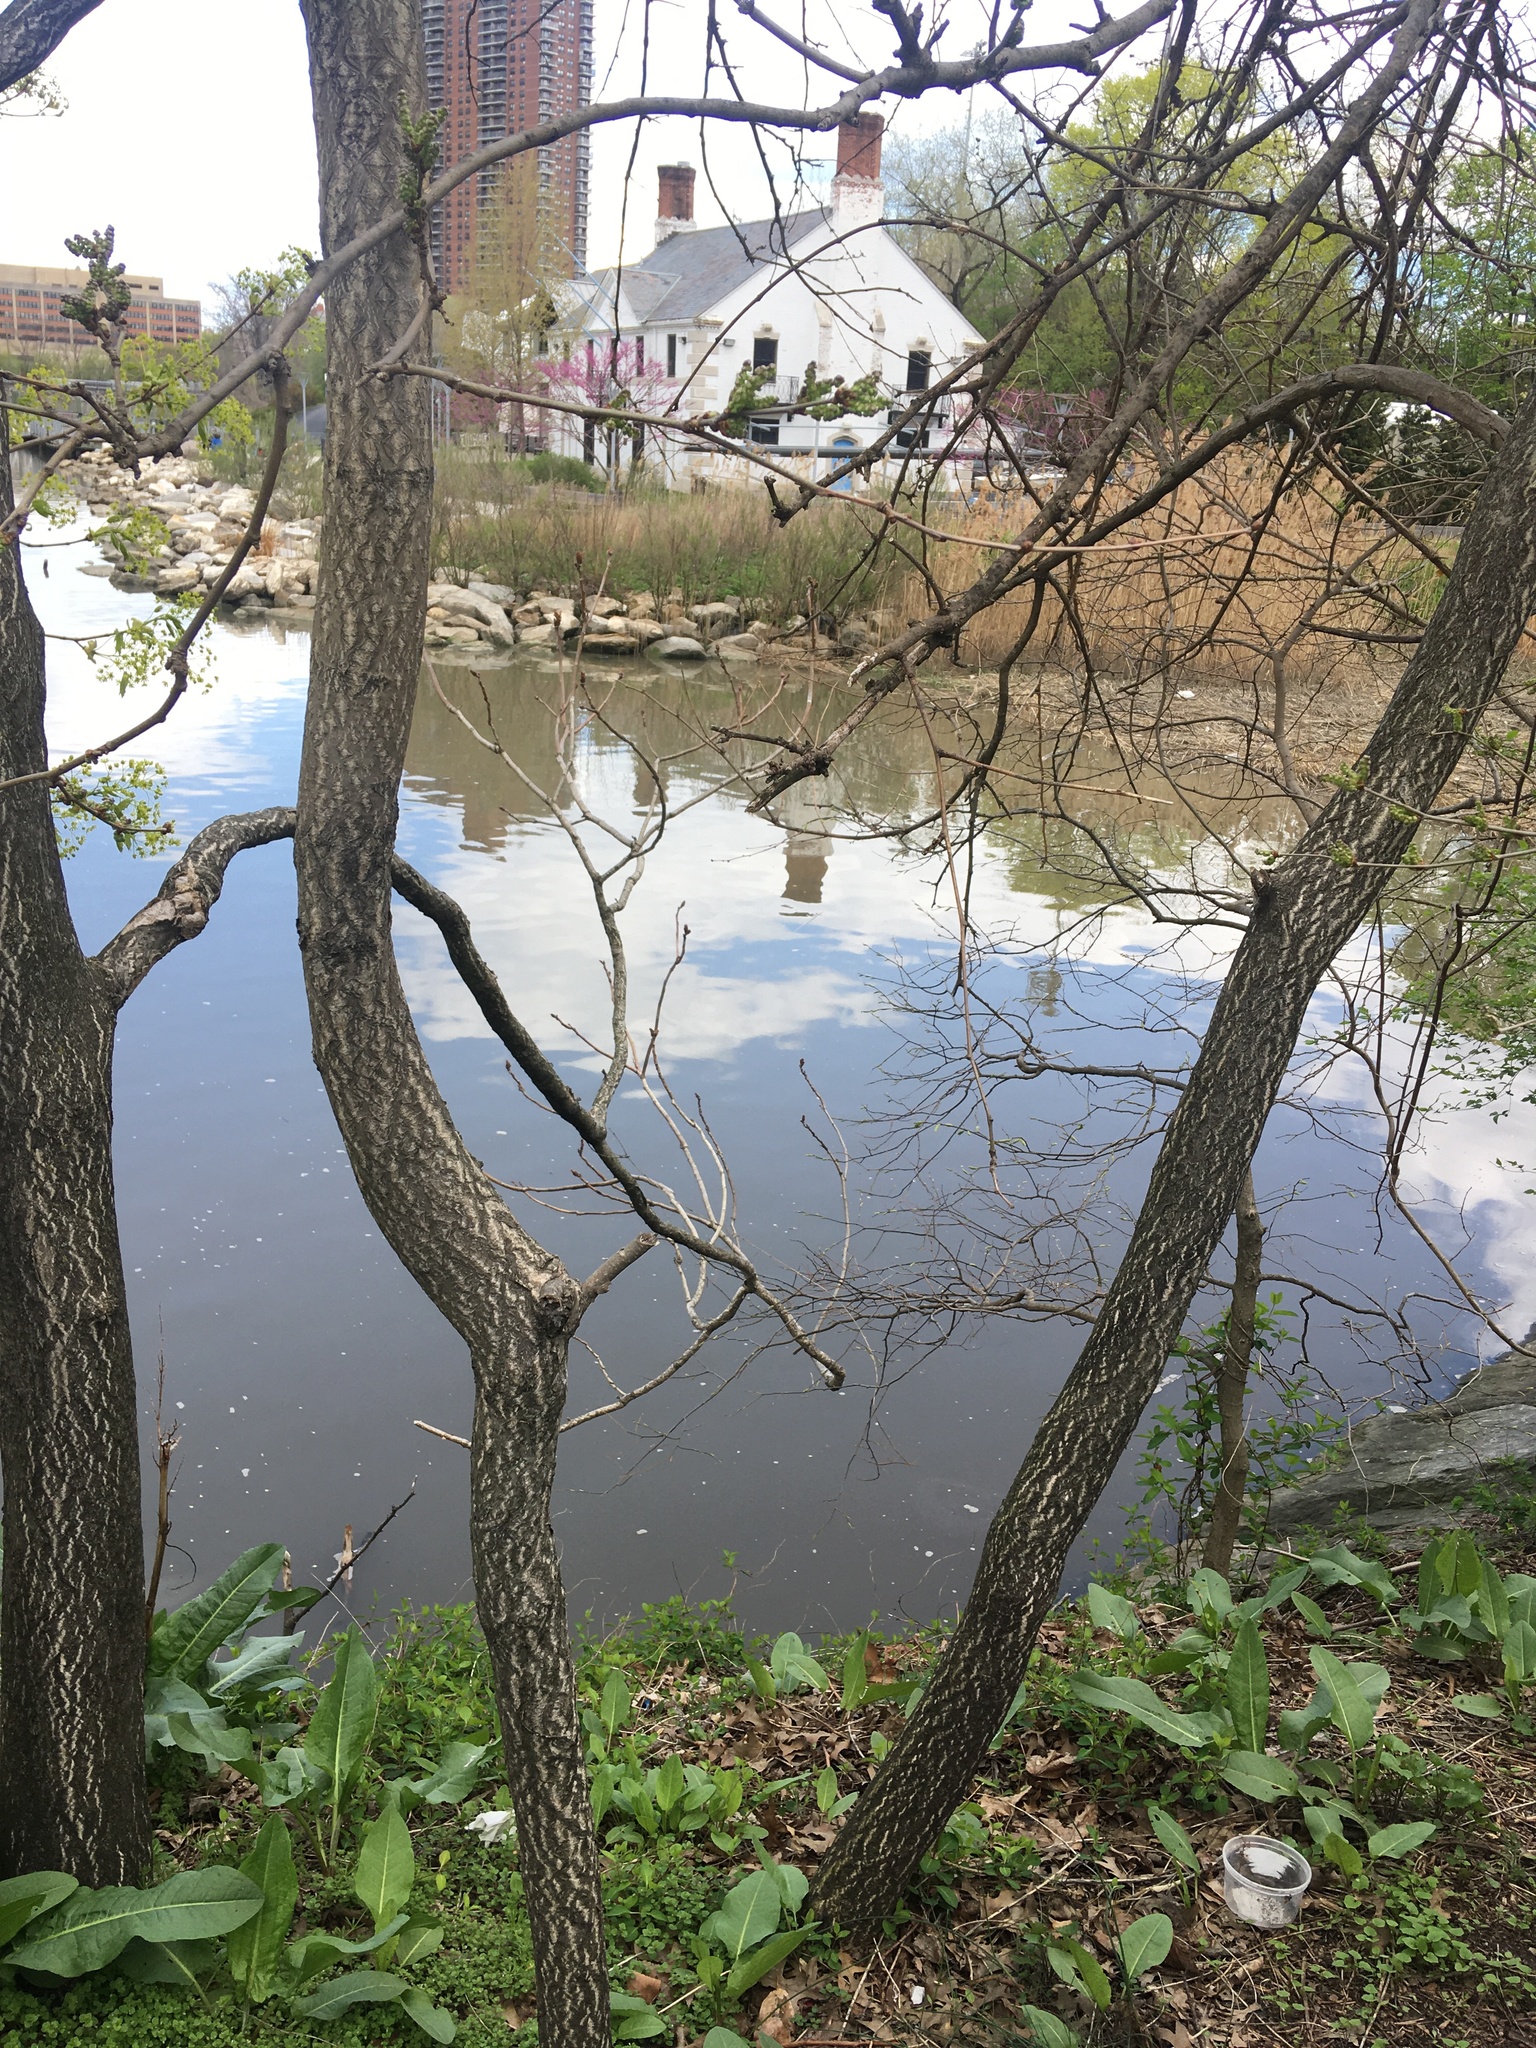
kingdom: Plantae
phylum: Tracheophyta
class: Magnoliopsida
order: Sapindales
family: Simaroubaceae
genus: Ailanthus
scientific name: Ailanthus altissima
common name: Tree-of-heaven
